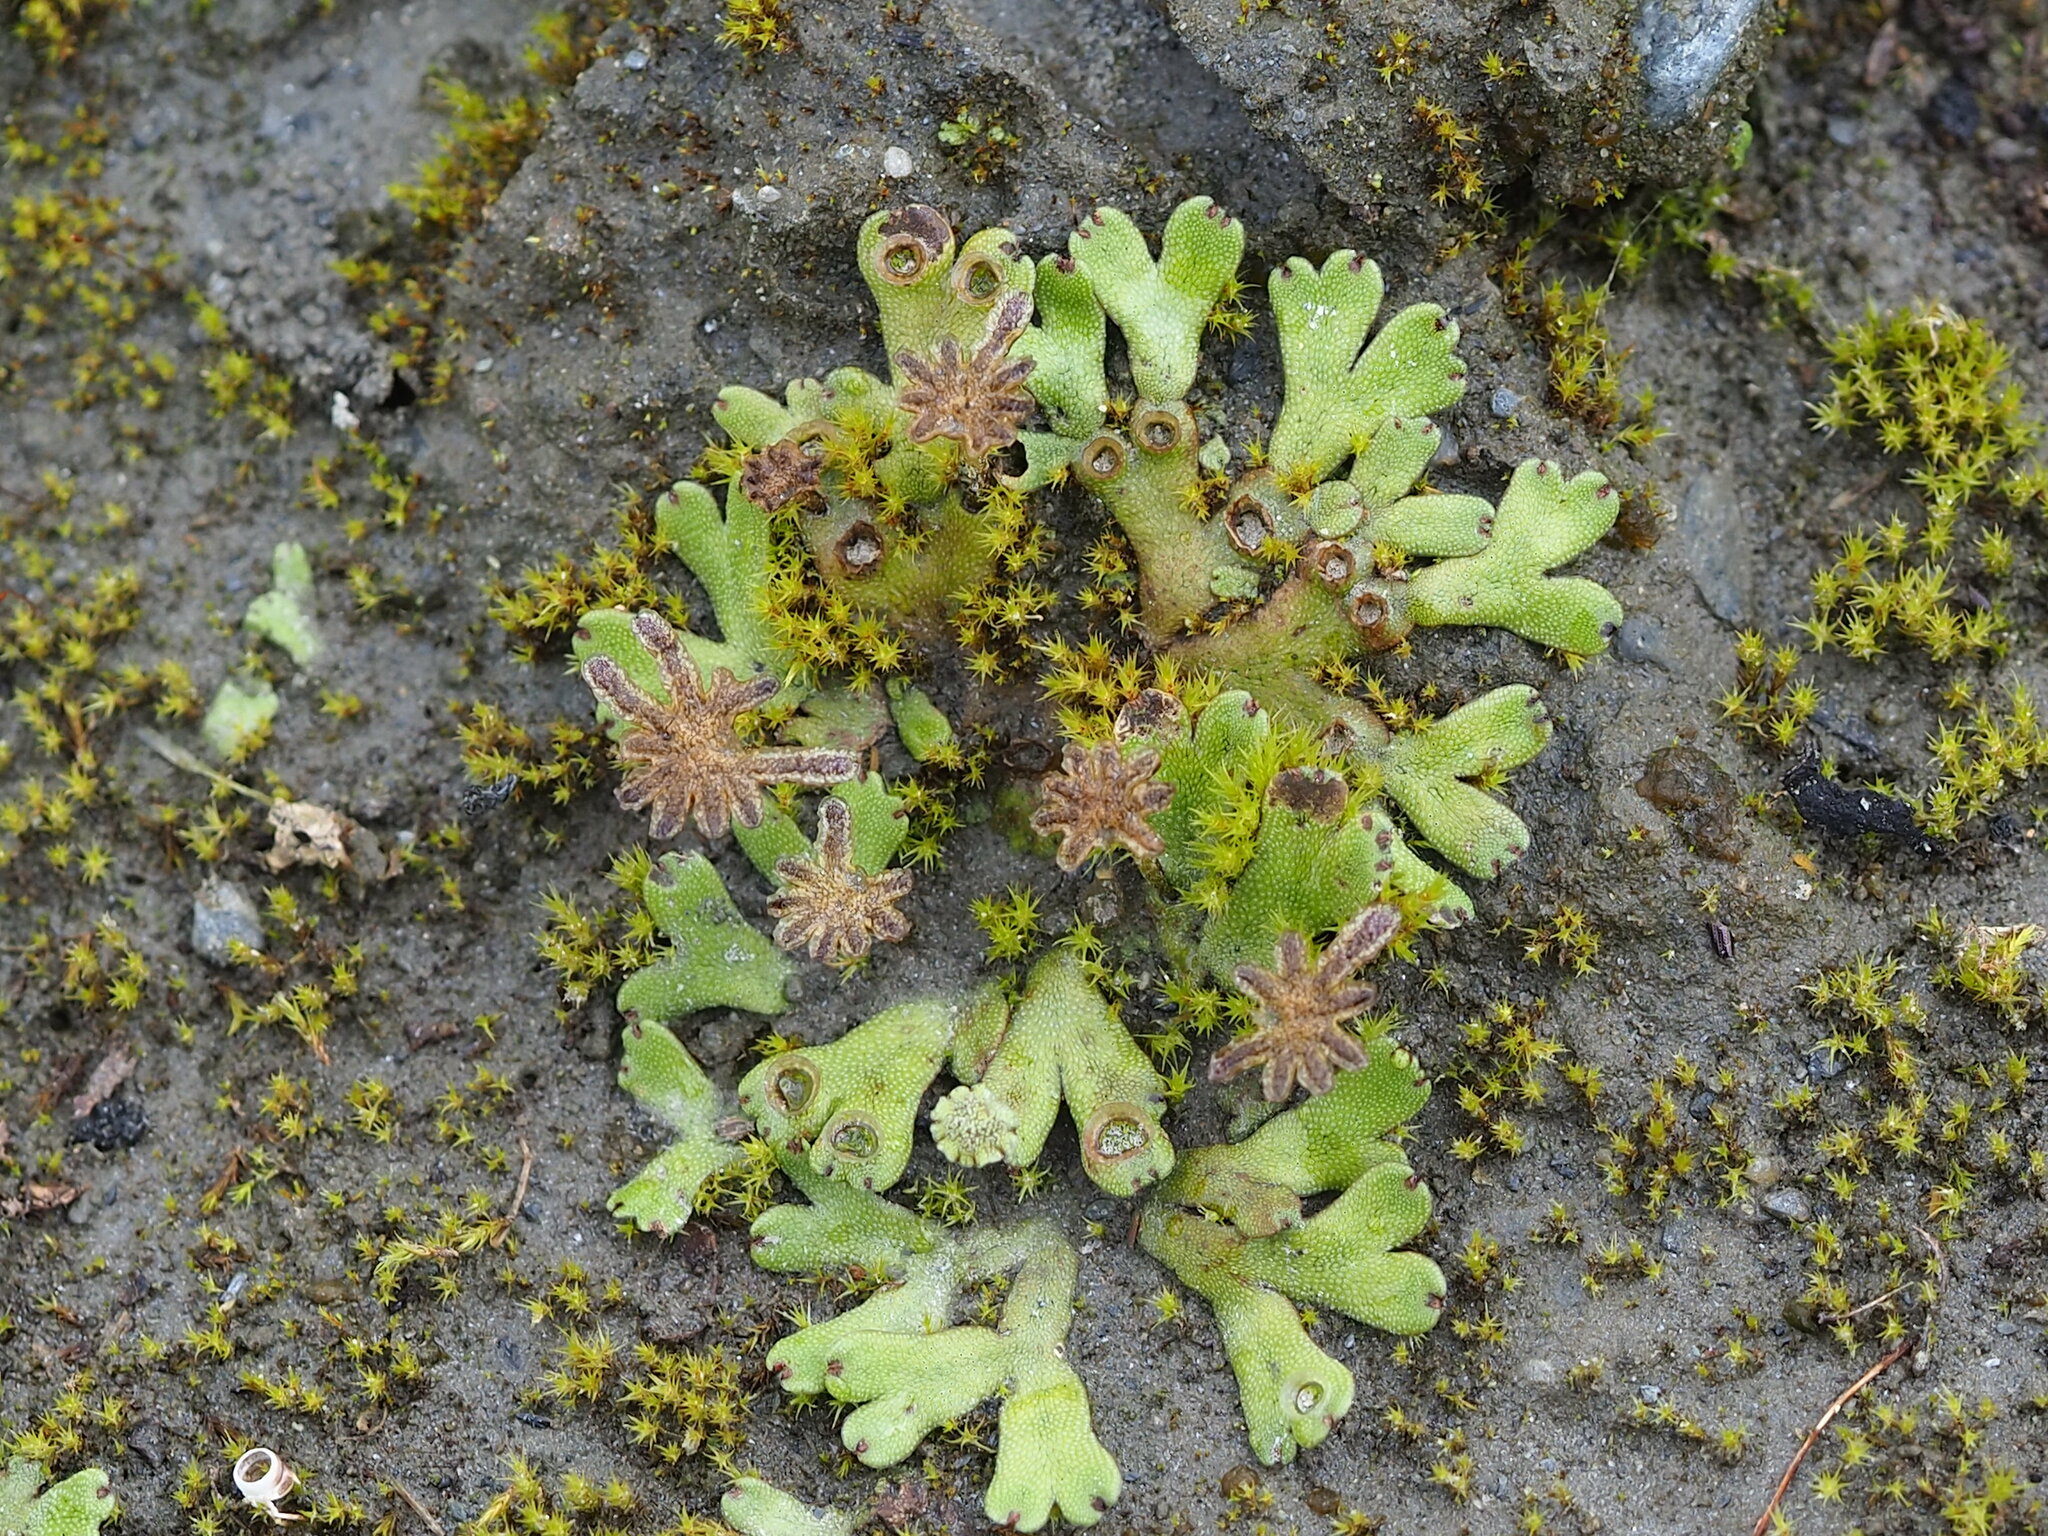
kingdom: Plantae
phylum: Marchantiophyta
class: Marchantiopsida
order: Marchantiales
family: Marchantiaceae
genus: Marchantia
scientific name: Marchantia emarginata
